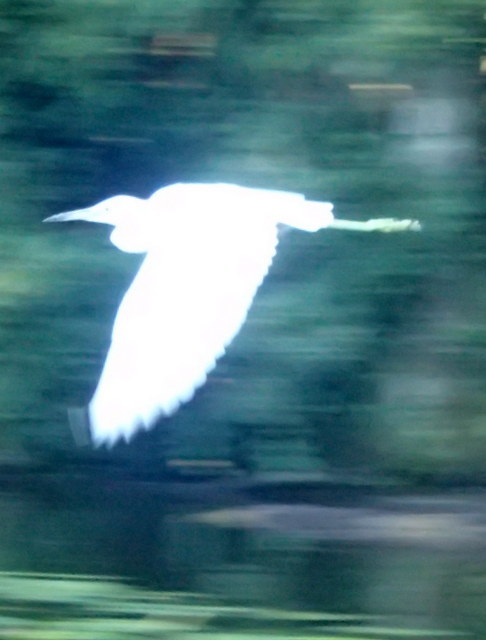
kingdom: Animalia
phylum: Chordata
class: Aves
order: Pelecaniformes
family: Ardeidae
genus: Egretta
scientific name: Egretta caerulea
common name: Little blue heron
